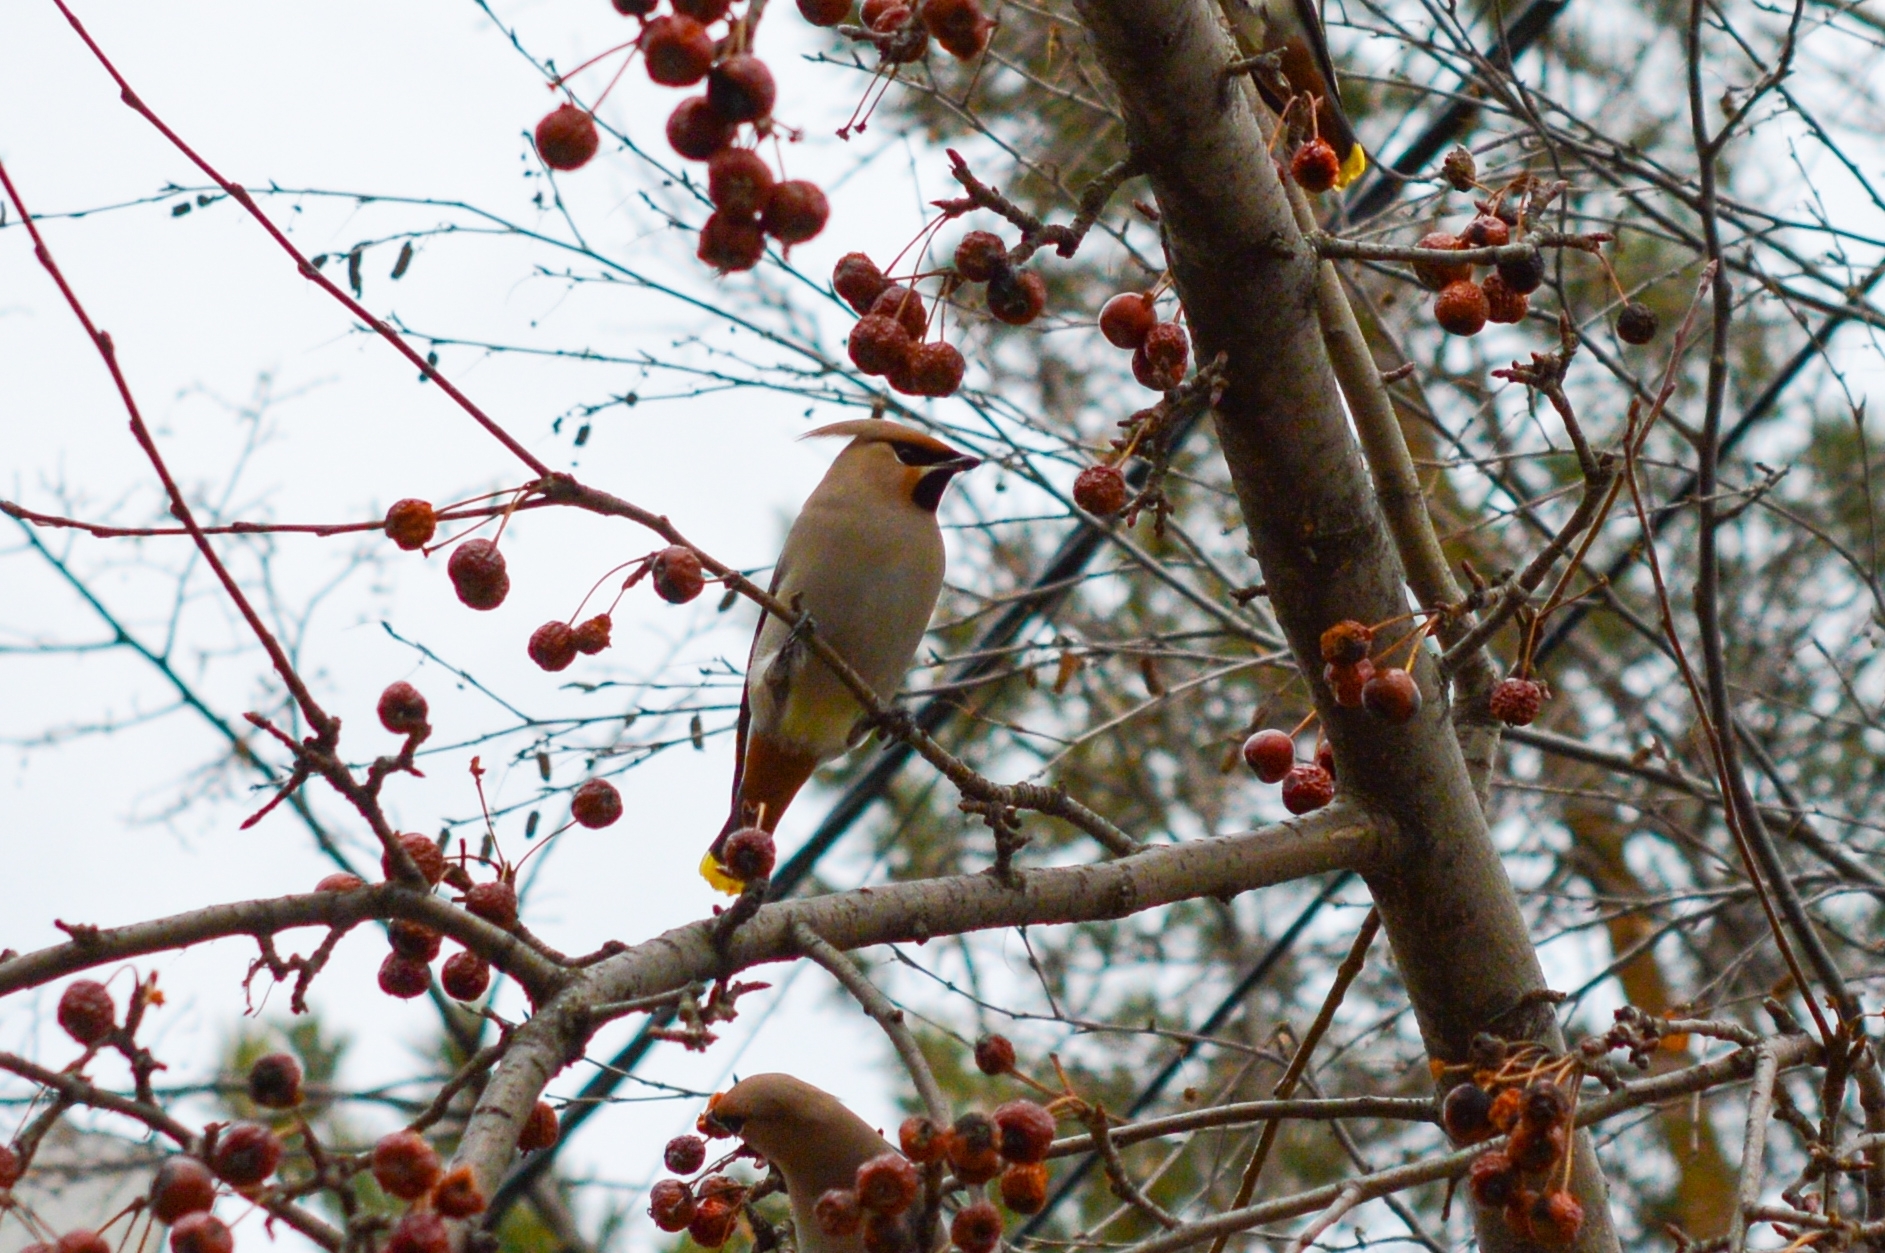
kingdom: Animalia
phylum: Chordata
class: Aves
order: Passeriformes
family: Bombycillidae
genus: Bombycilla
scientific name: Bombycilla garrulus
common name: Bohemian waxwing
